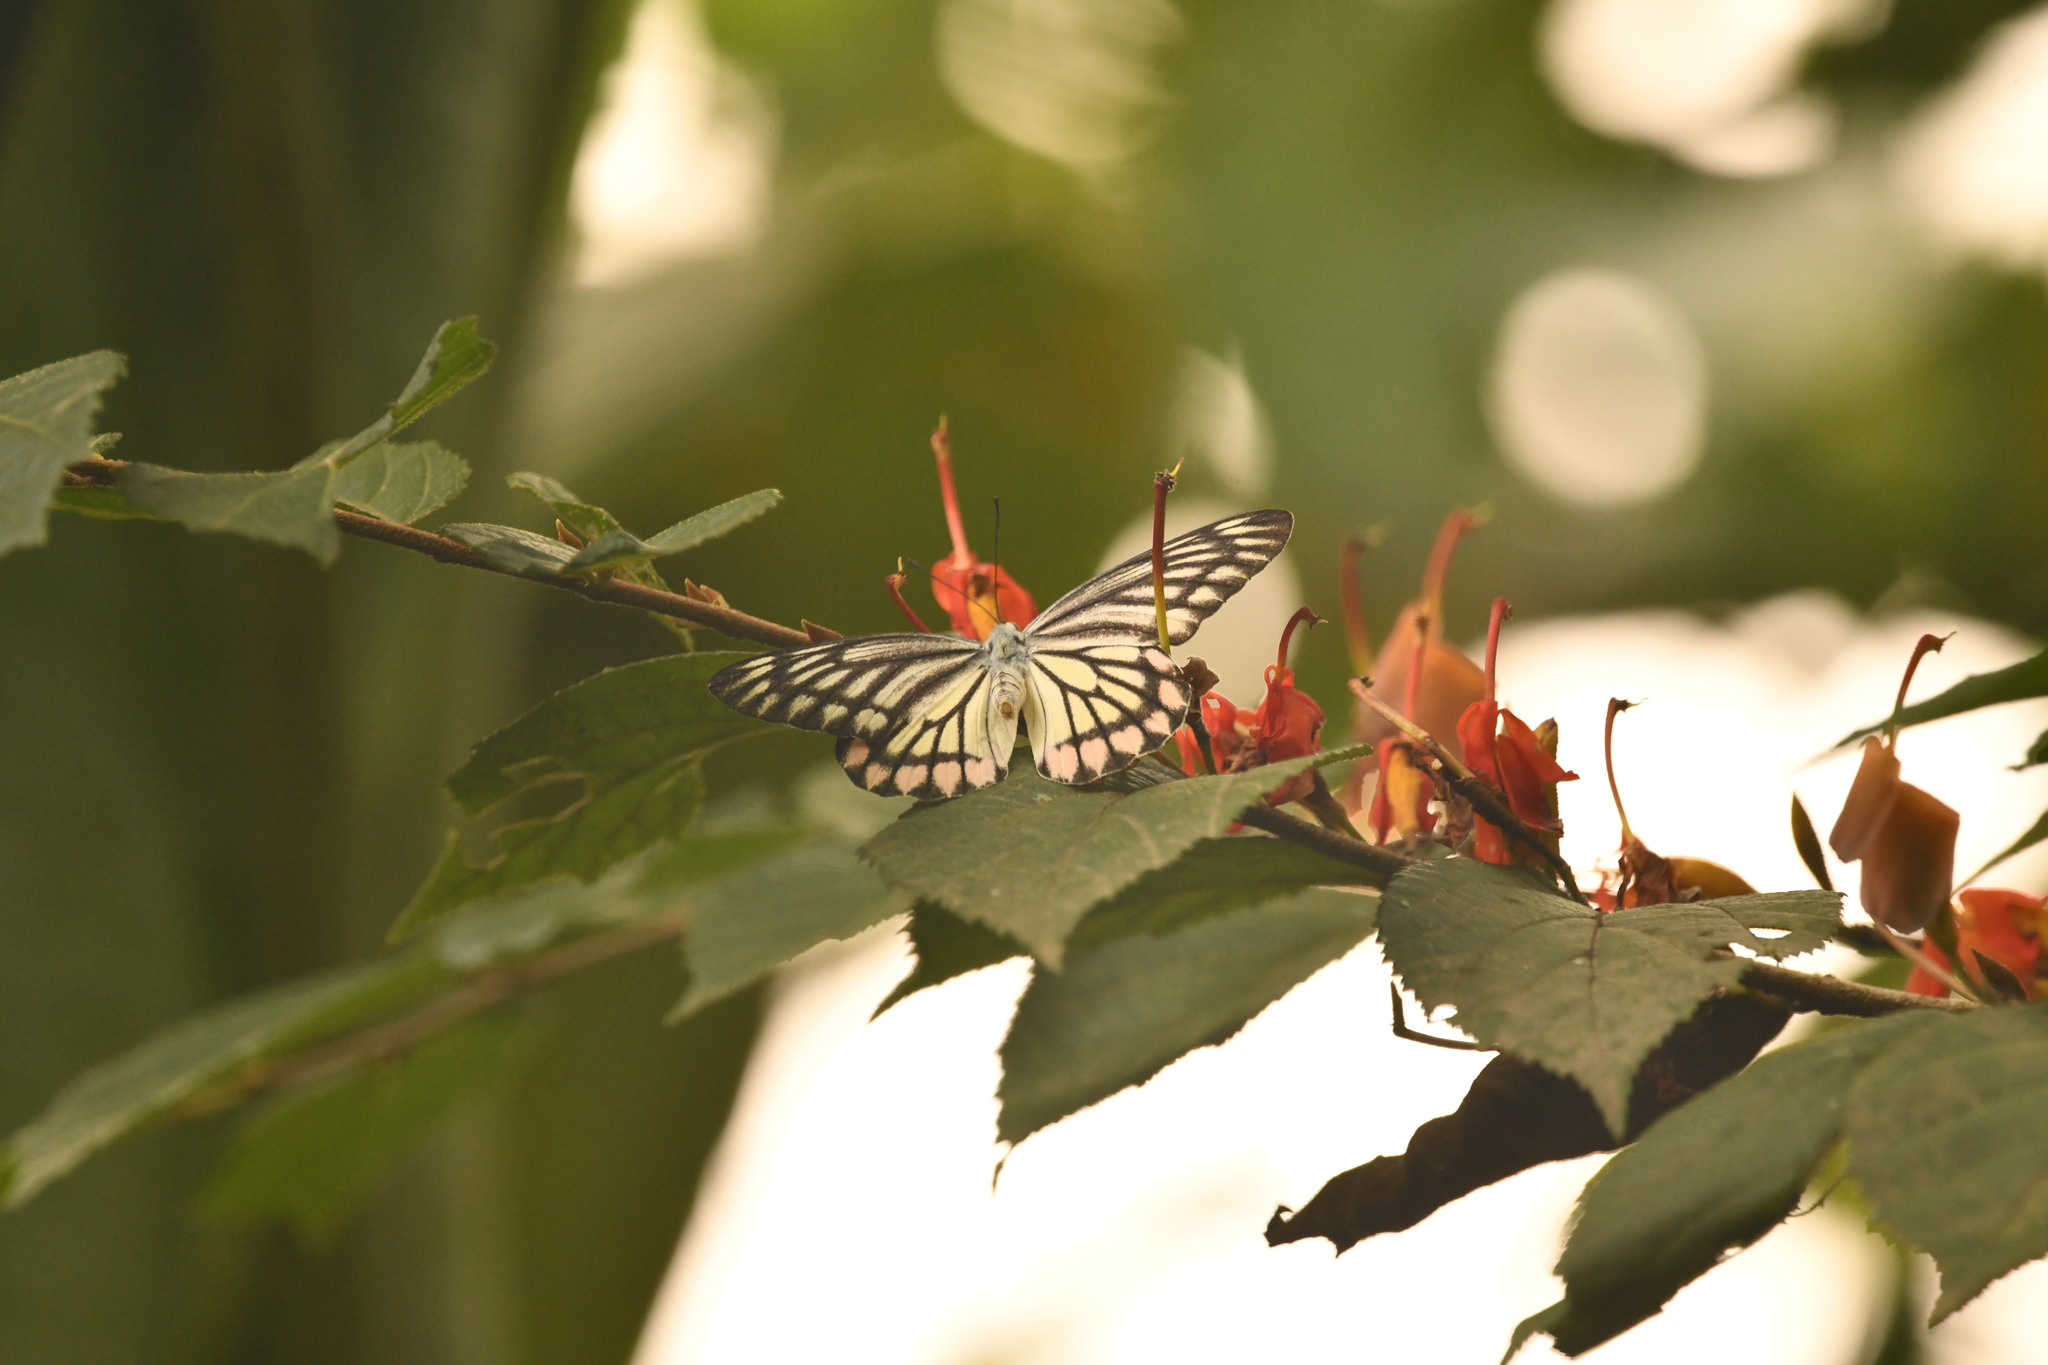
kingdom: Animalia
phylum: Arthropoda
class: Insecta
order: Lepidoptera
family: Pieridae
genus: Delias
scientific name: Delias eucharis
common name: Common jezebel
